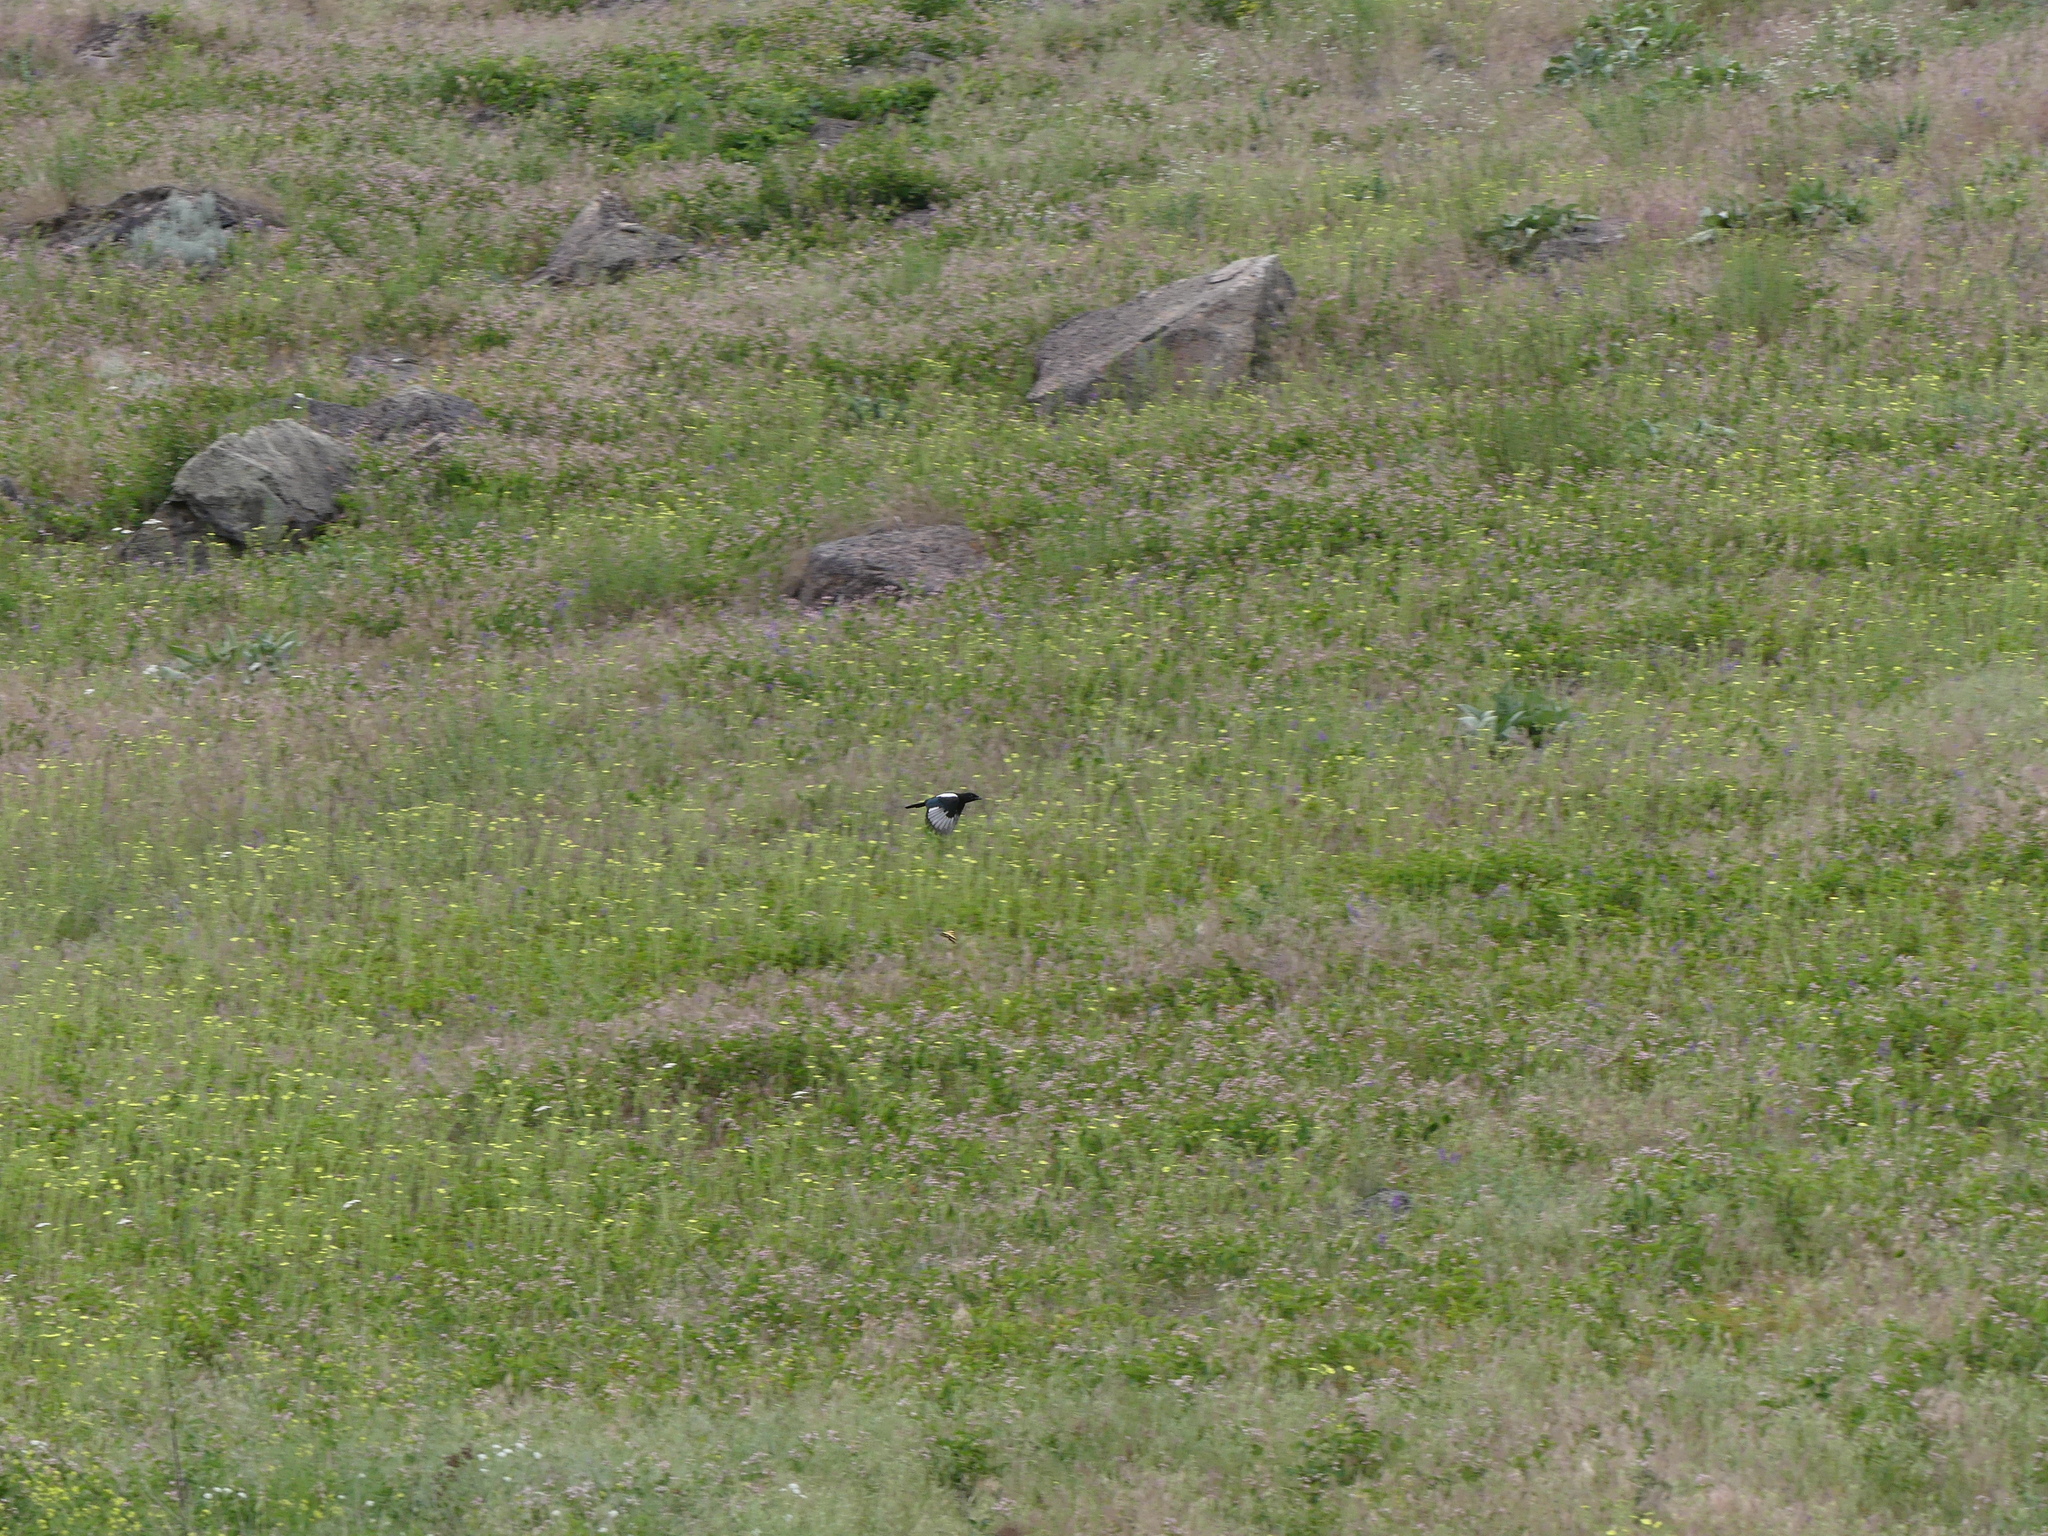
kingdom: Animalia
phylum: Chordata
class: Aves
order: Passeriformes
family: Corvidae
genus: Pica
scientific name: Pica hudsonia
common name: Black-billed magpie
